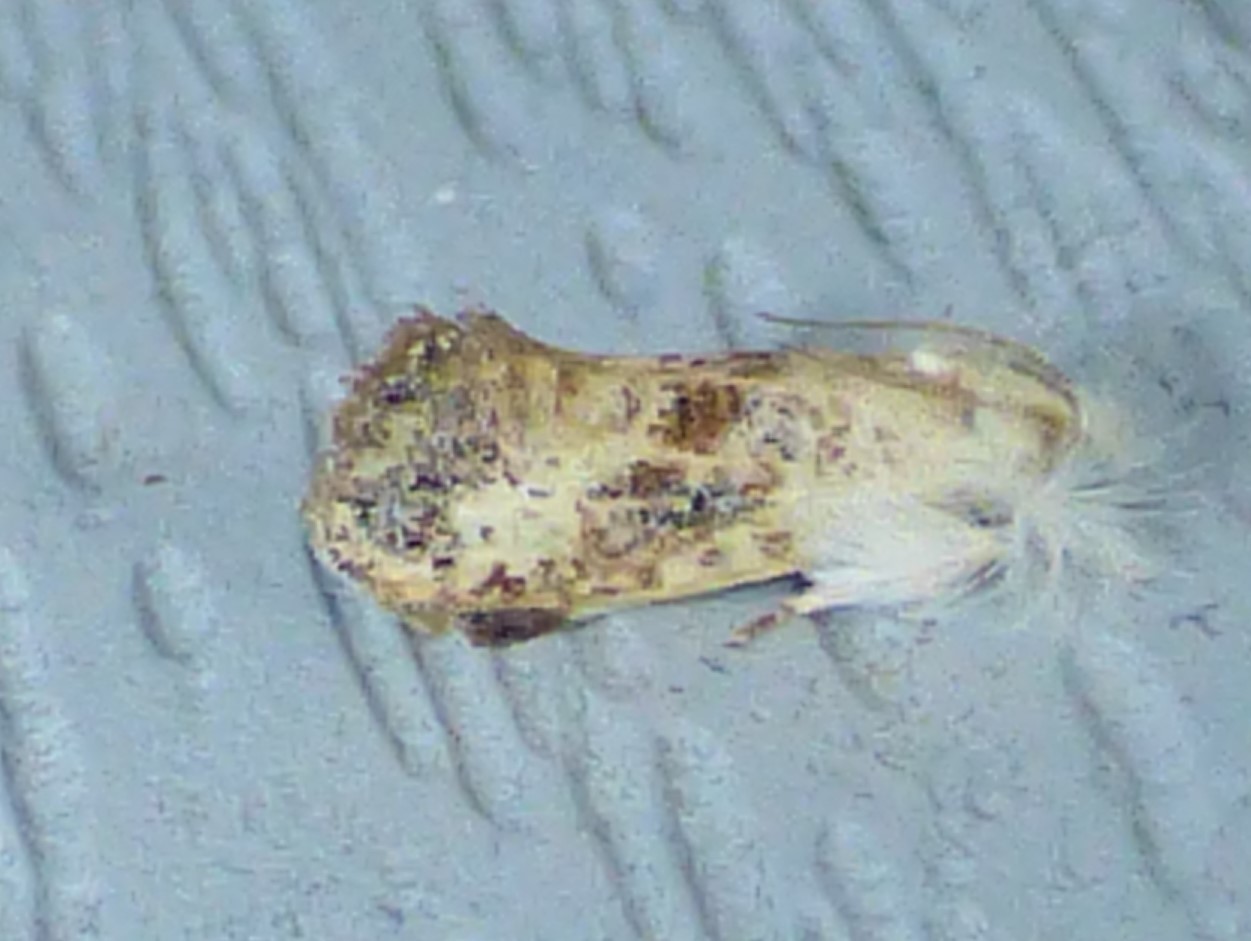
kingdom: Animalia
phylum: Arthropoda
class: Insecta
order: Lepidoptera
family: Tineidae
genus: Acrolophus
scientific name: Acrolophus mycetophagus
